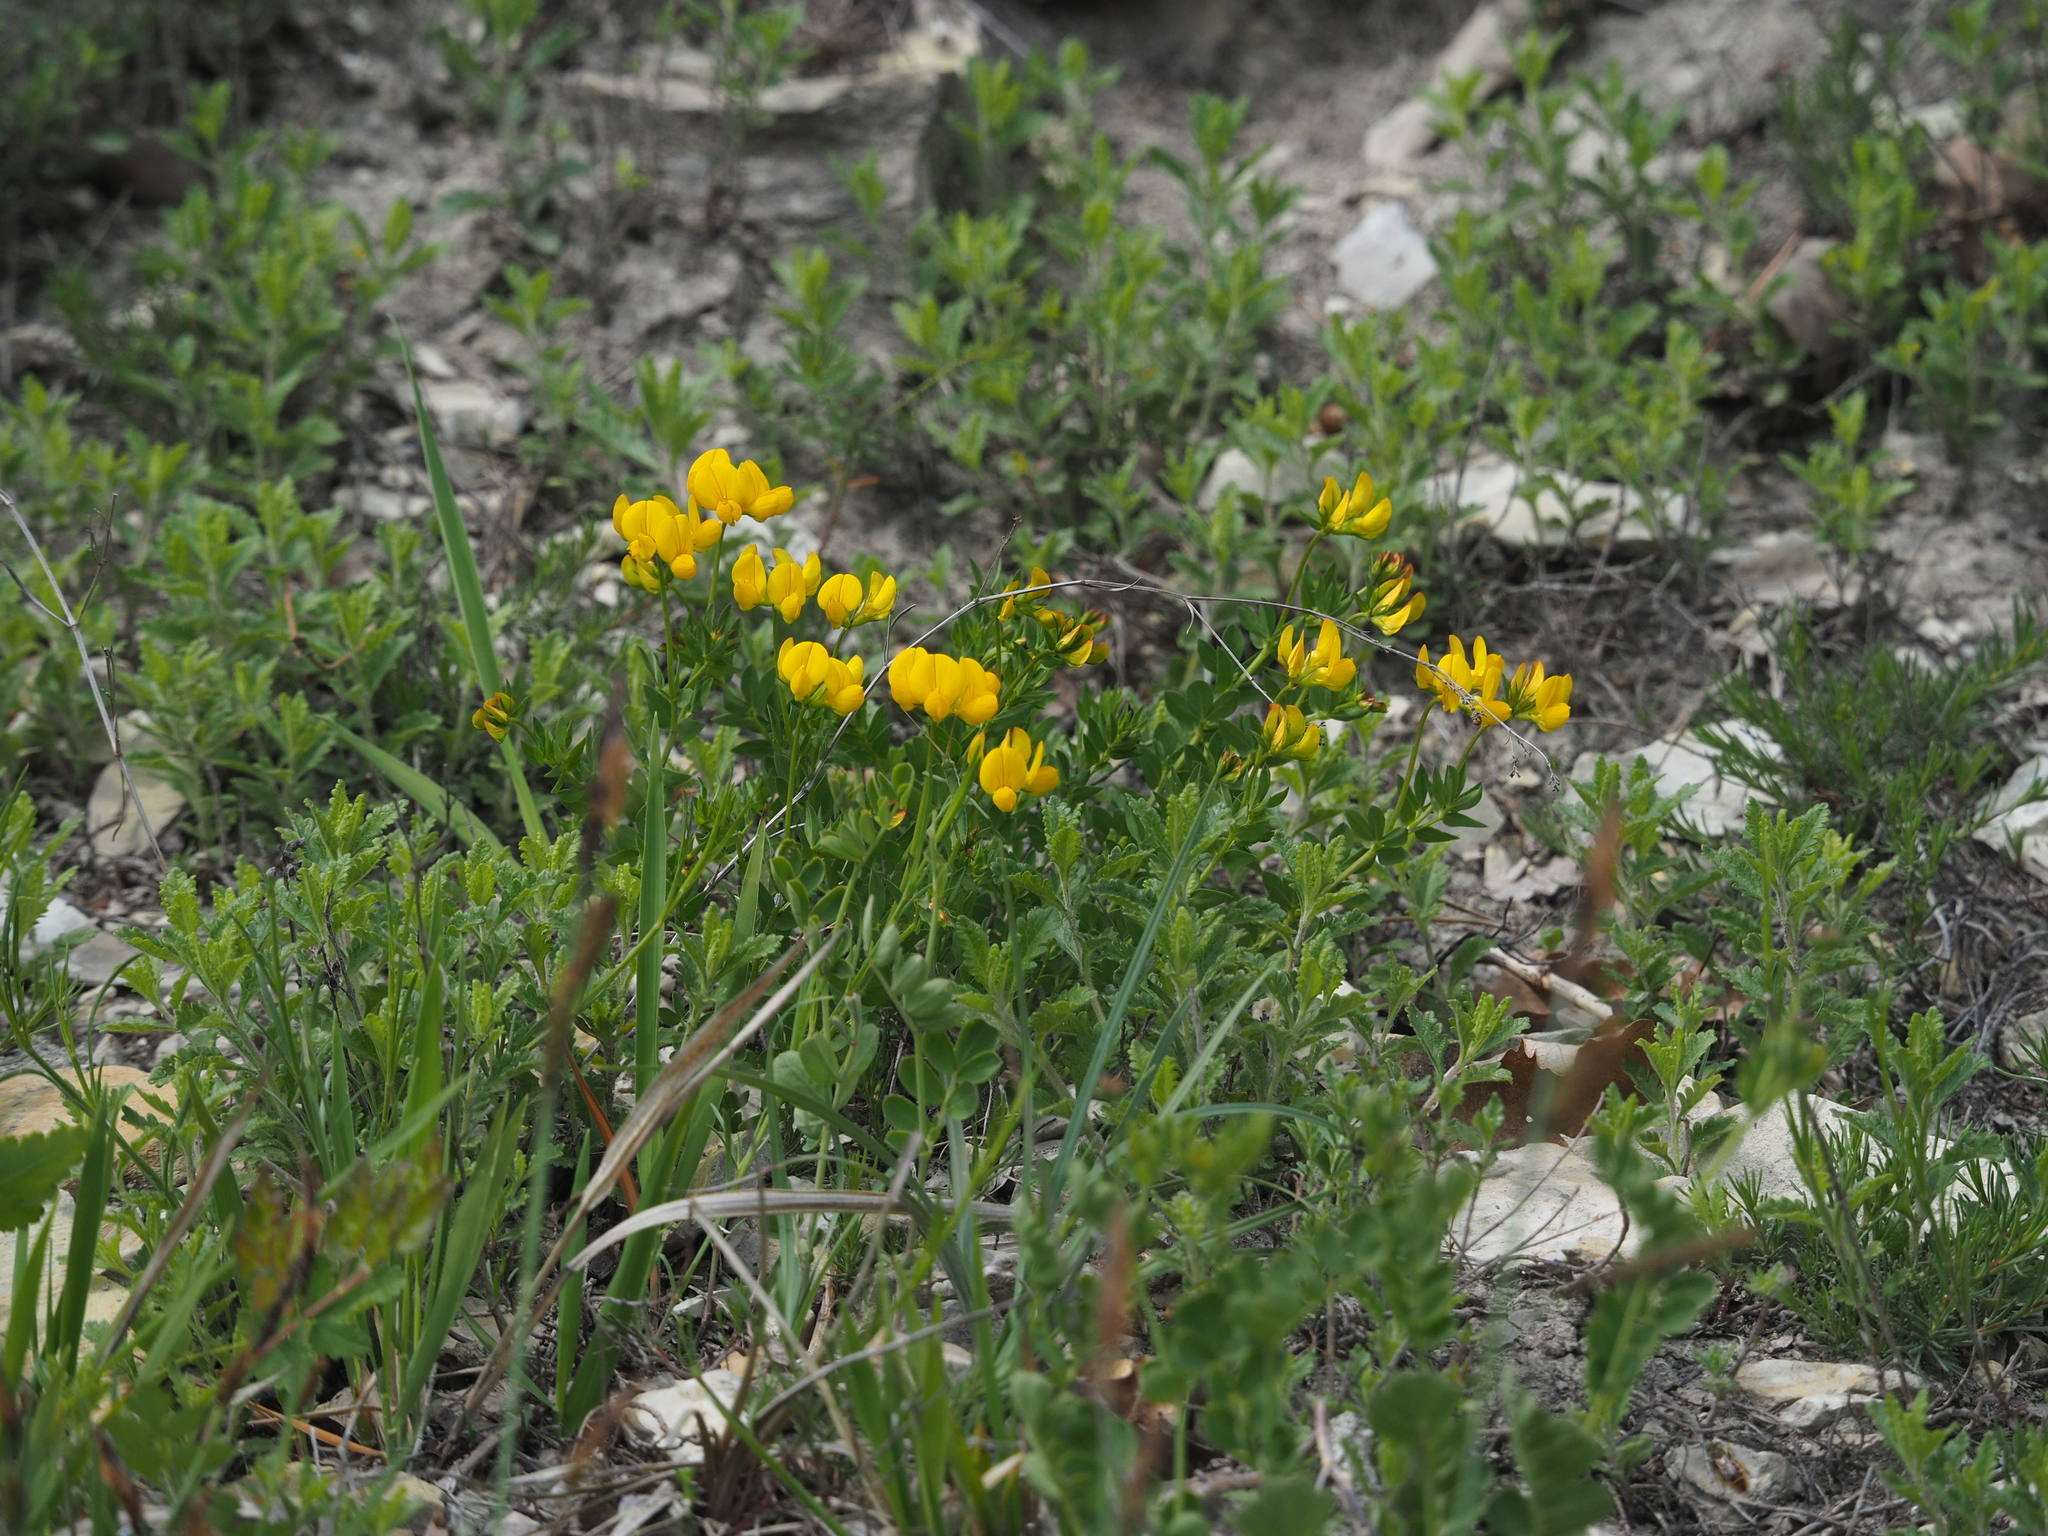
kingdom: Animalia
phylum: Arthropoda
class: Insecta
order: Orthoptera
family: Tettigoniidae
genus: Saga
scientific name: Saga pedo
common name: Common predatory bush-cricket
